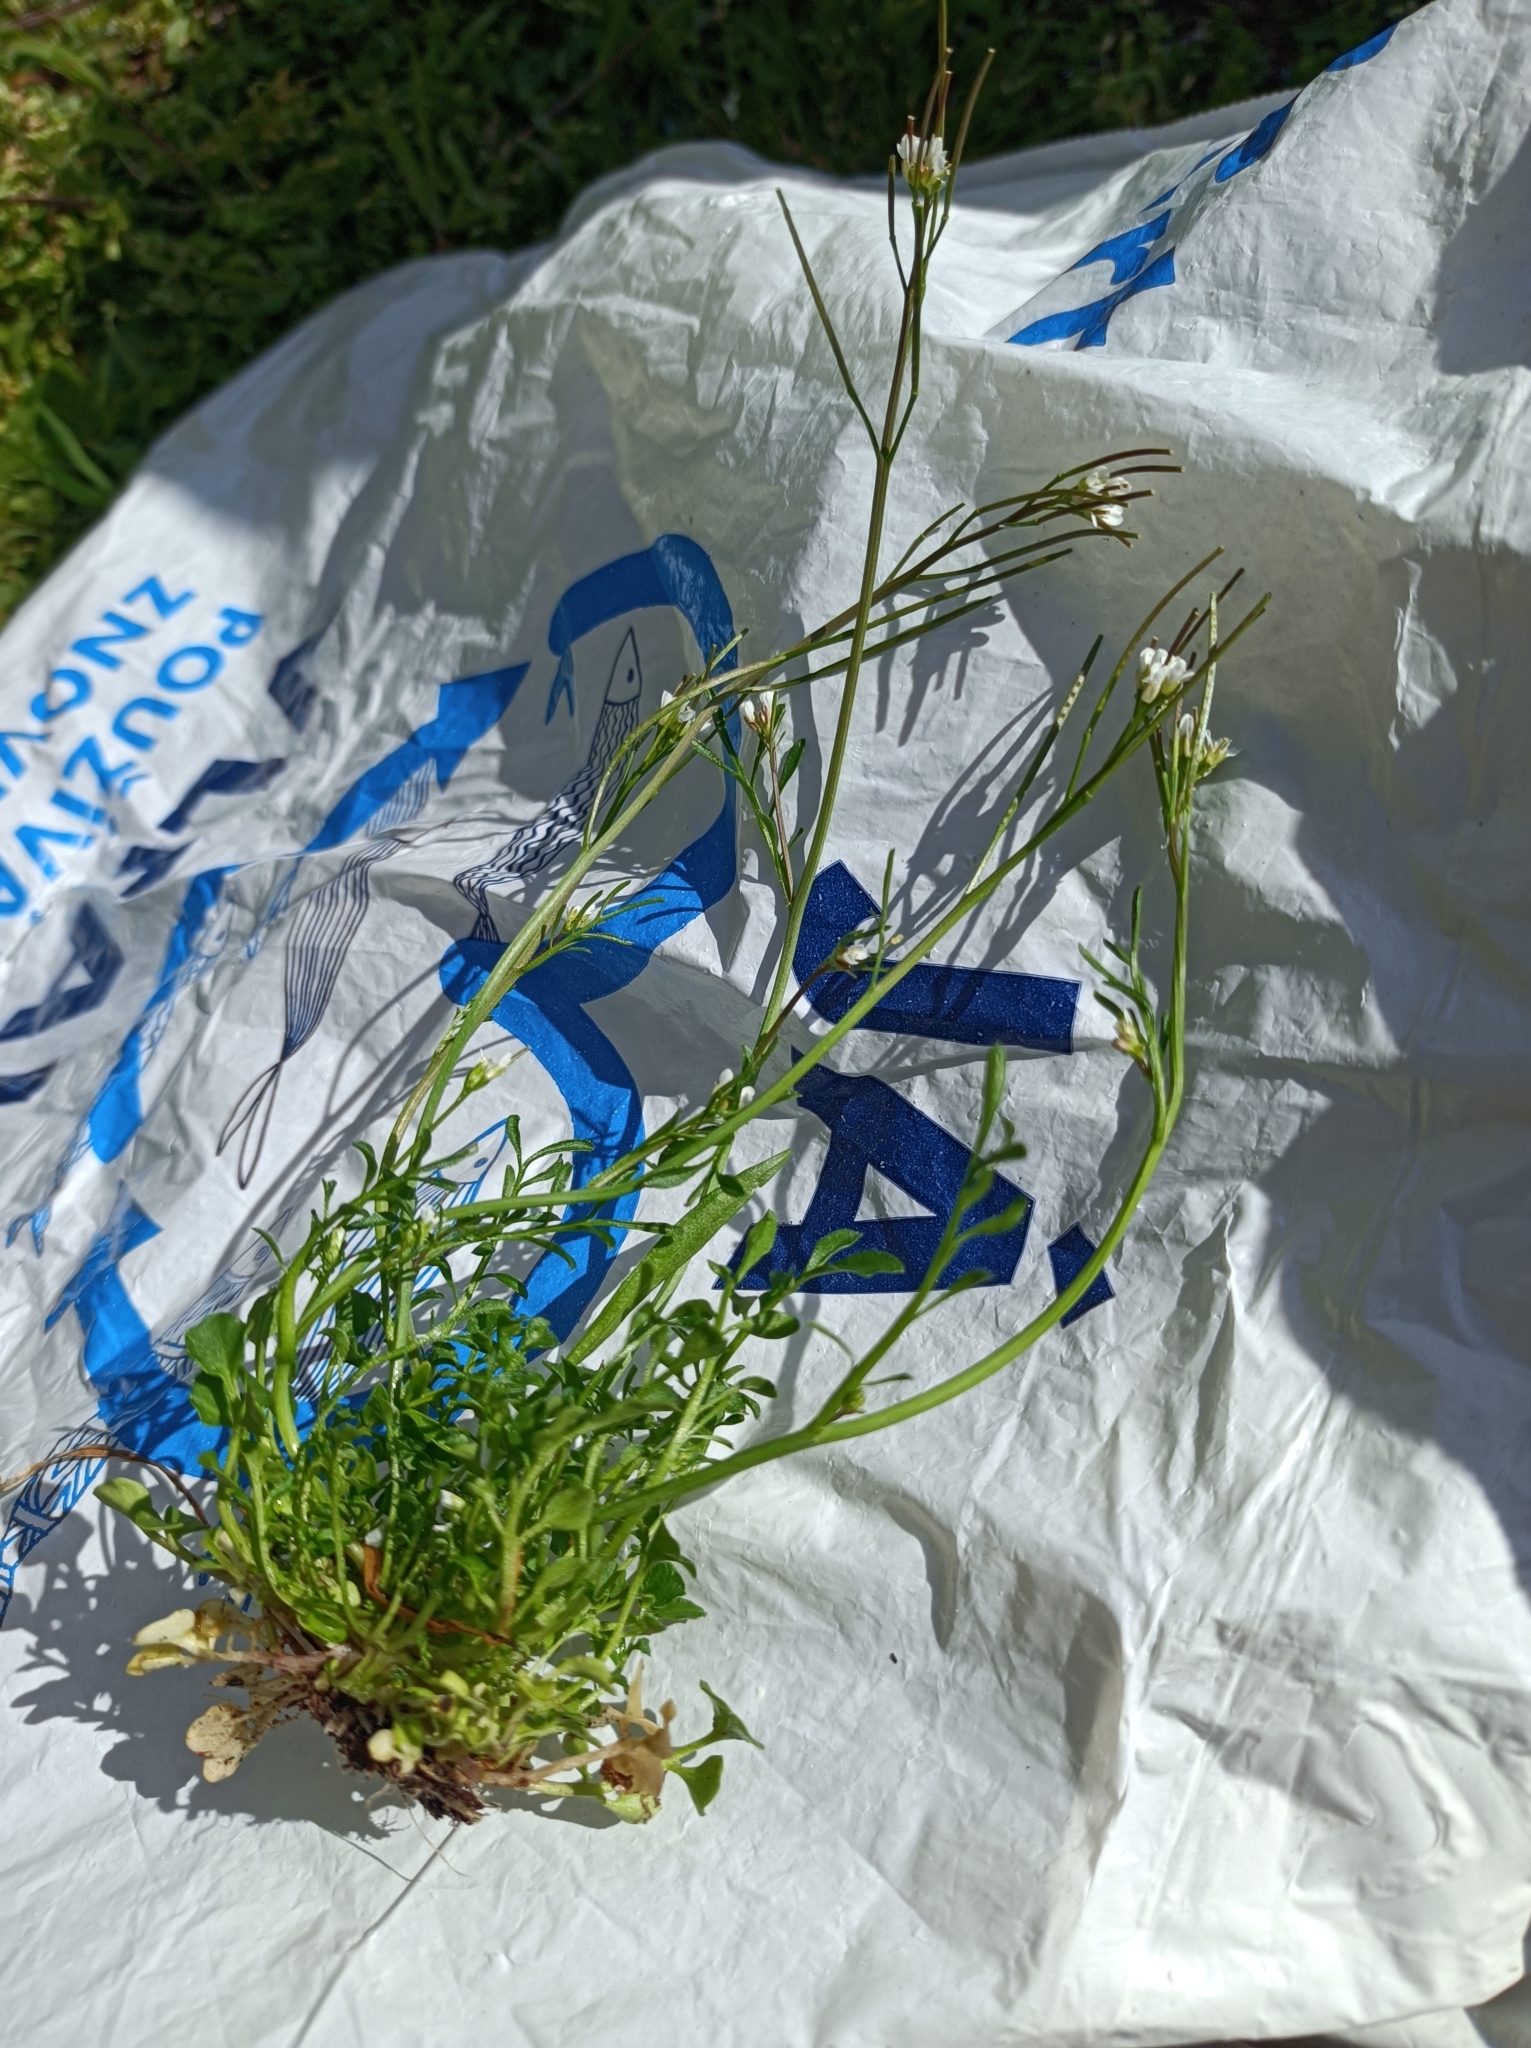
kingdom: Plantae
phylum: Tracheophyta
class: Magnoliopsida
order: Brassicales
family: Brassicaceae
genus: Cardamine
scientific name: Cardamine hirsuta
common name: Hairy bittercress
